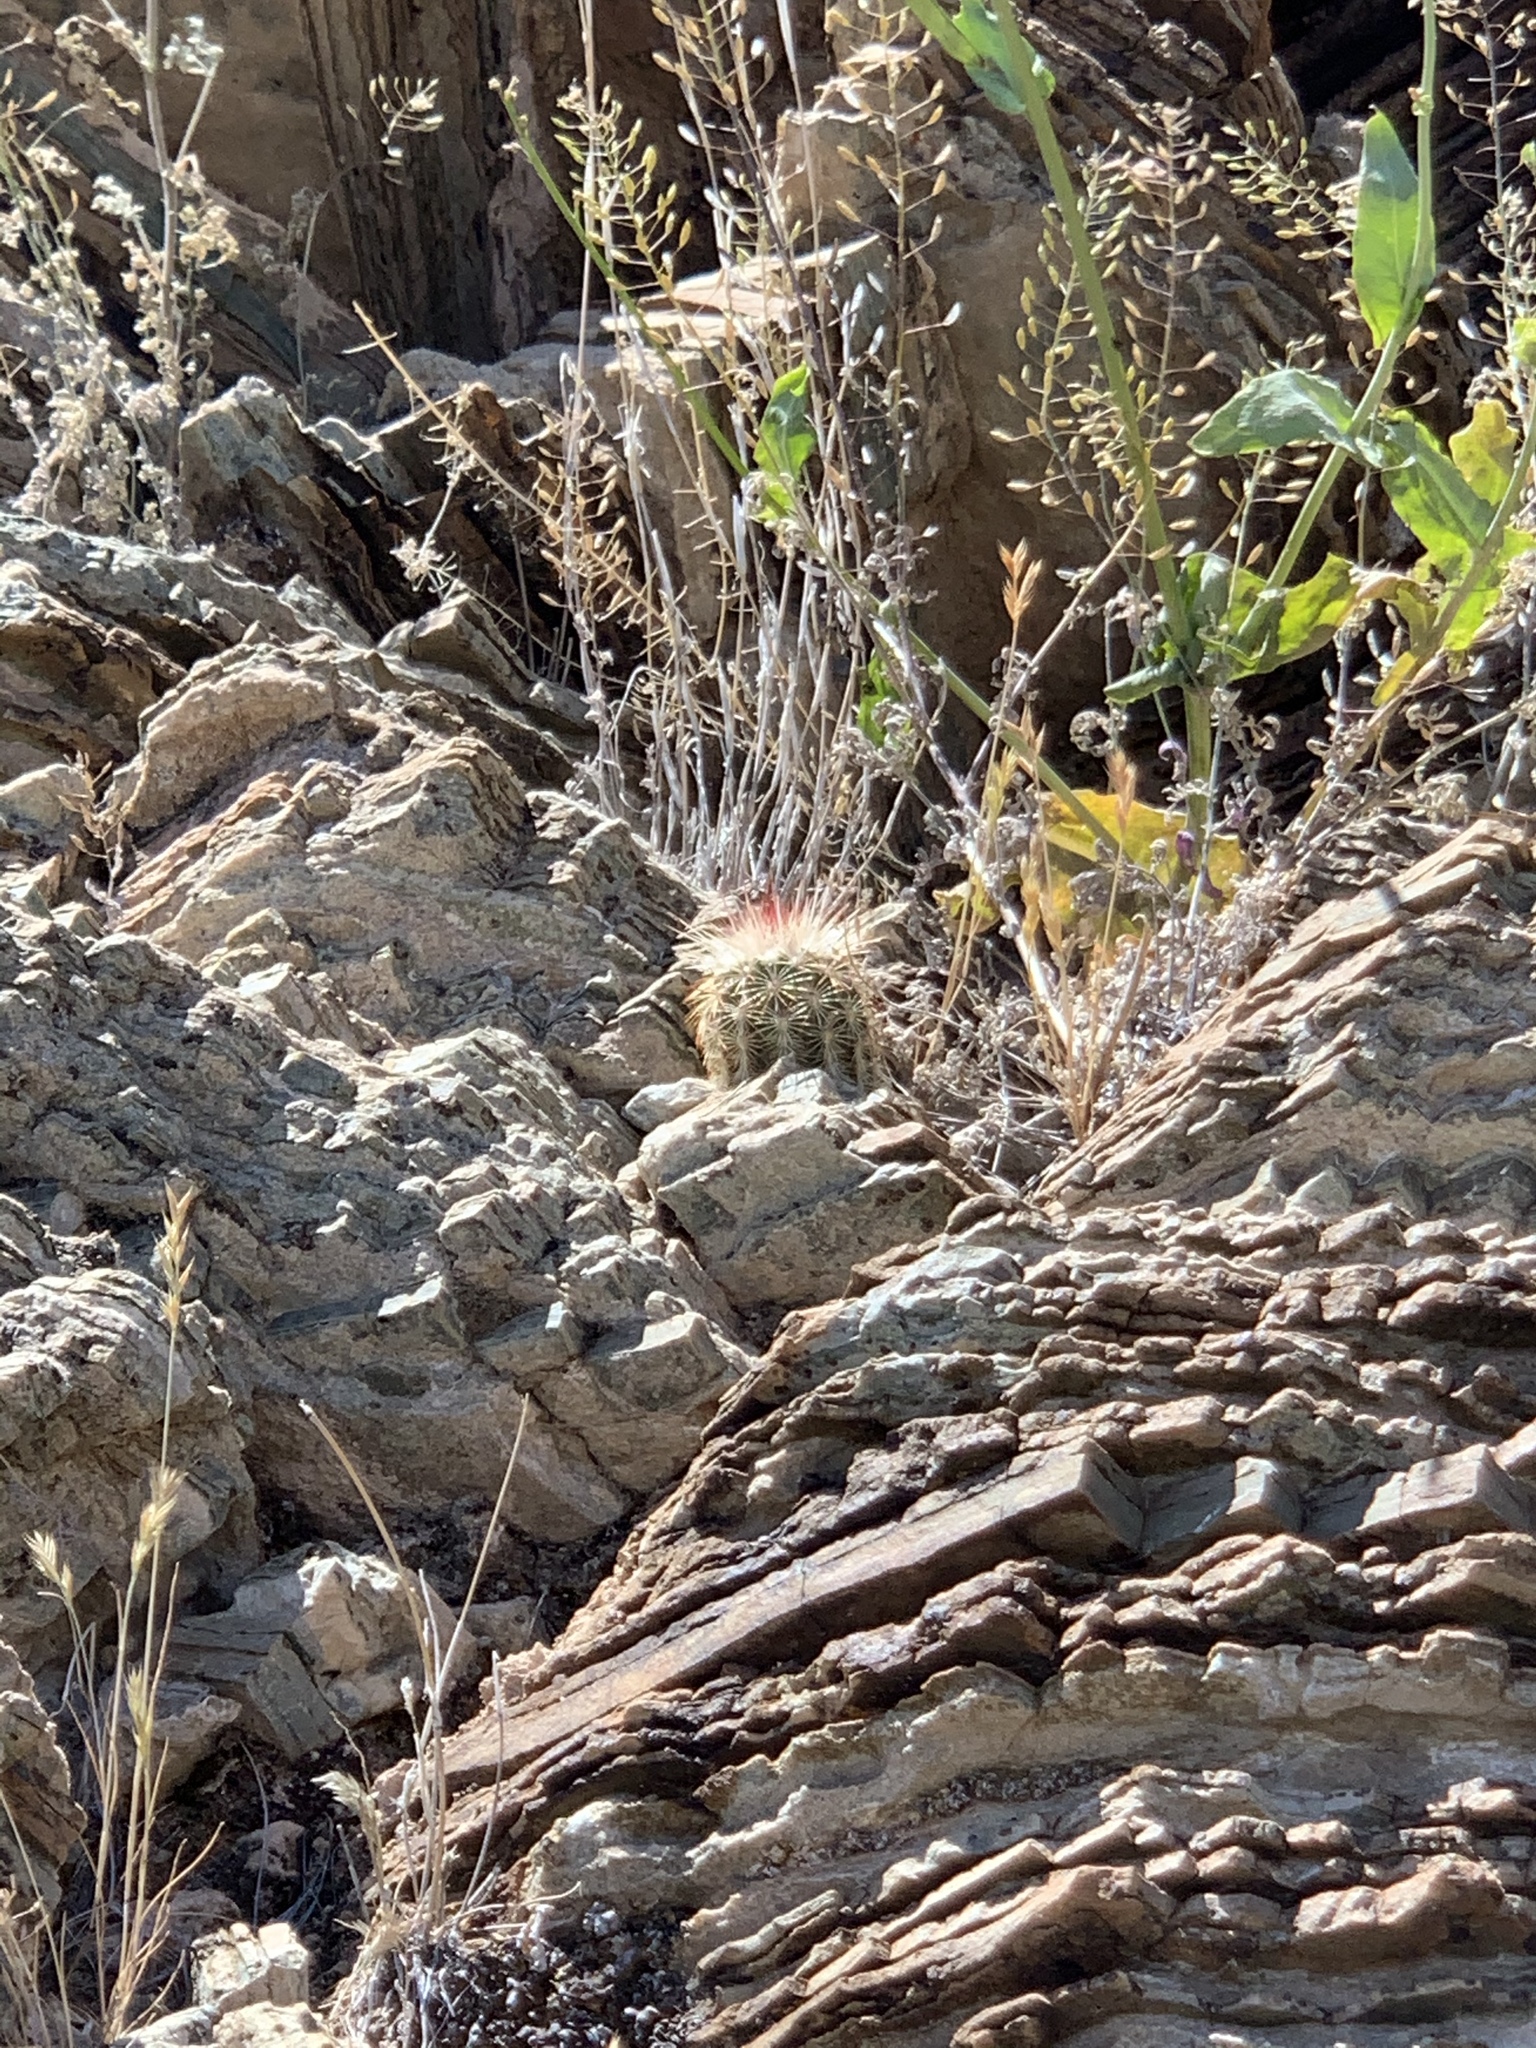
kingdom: Plantae
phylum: Tracheophyta
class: Magnoliopsida
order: Caryophyllales
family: Cactaceae
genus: Echinocereus
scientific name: Echinocereus viridiflorus
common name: Nylon hedgehog cactus
